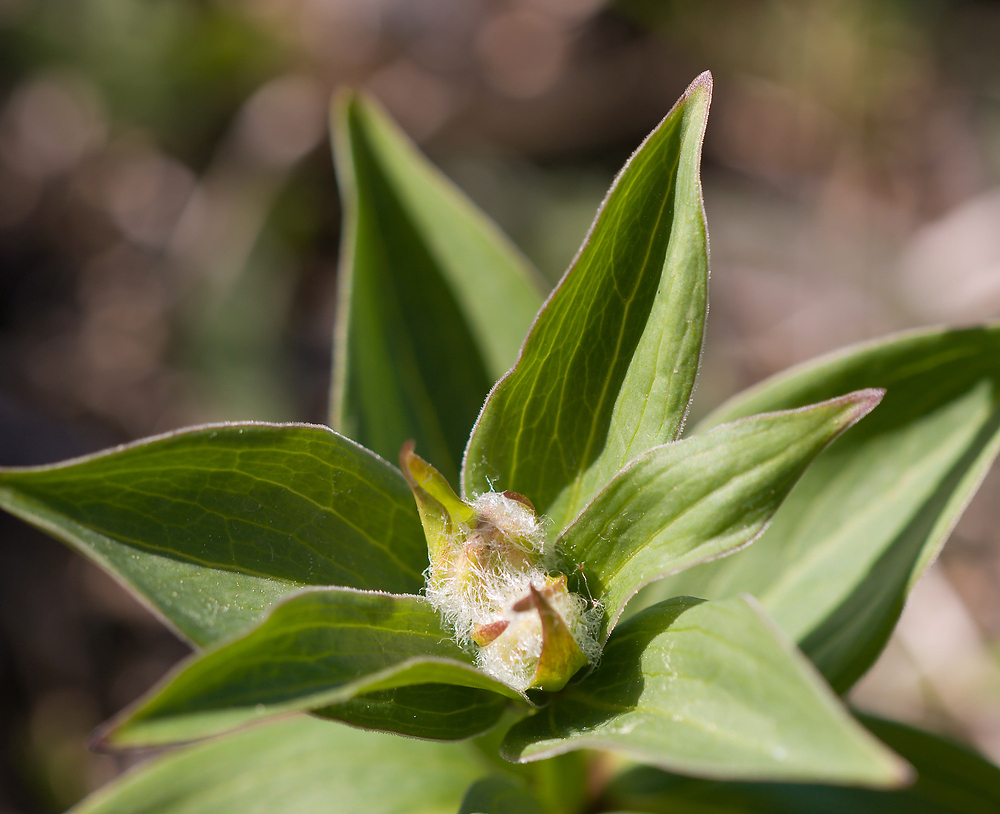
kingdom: Plantae
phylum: Tracheophyta
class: Liliopsida
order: Liliales
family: Liliaceae
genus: Lilium
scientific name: Lilium martagon
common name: Martagon lily
